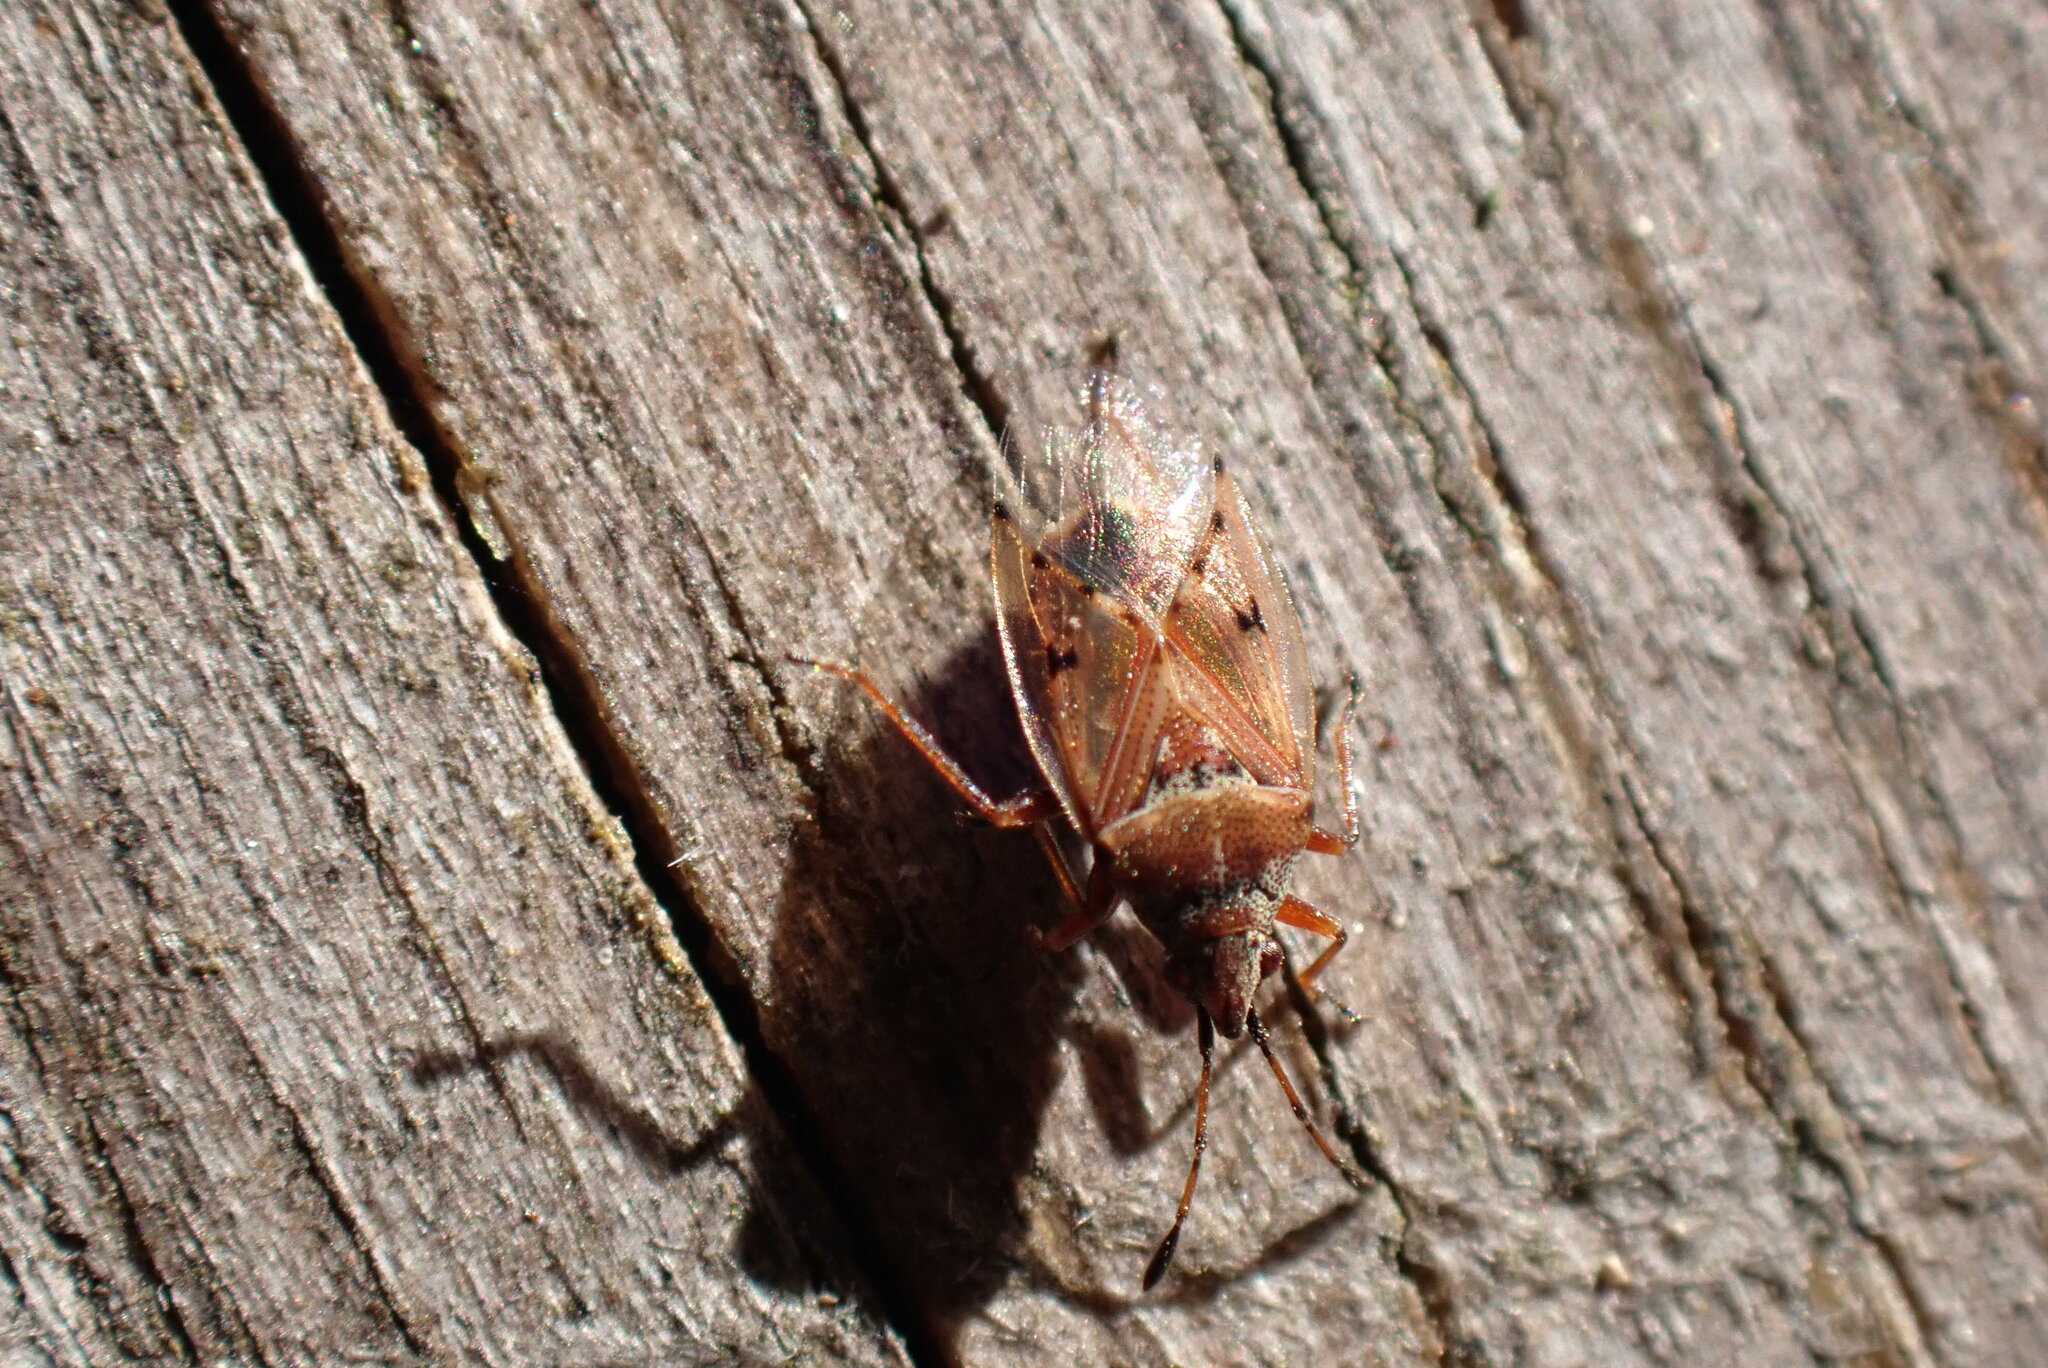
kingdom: Animalia
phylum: Arthropoda
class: Insecta
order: Hemiptera
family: Lygaeidae
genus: Kleidocerys
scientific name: Kleidocerys resedae
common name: Birch catkin bug
